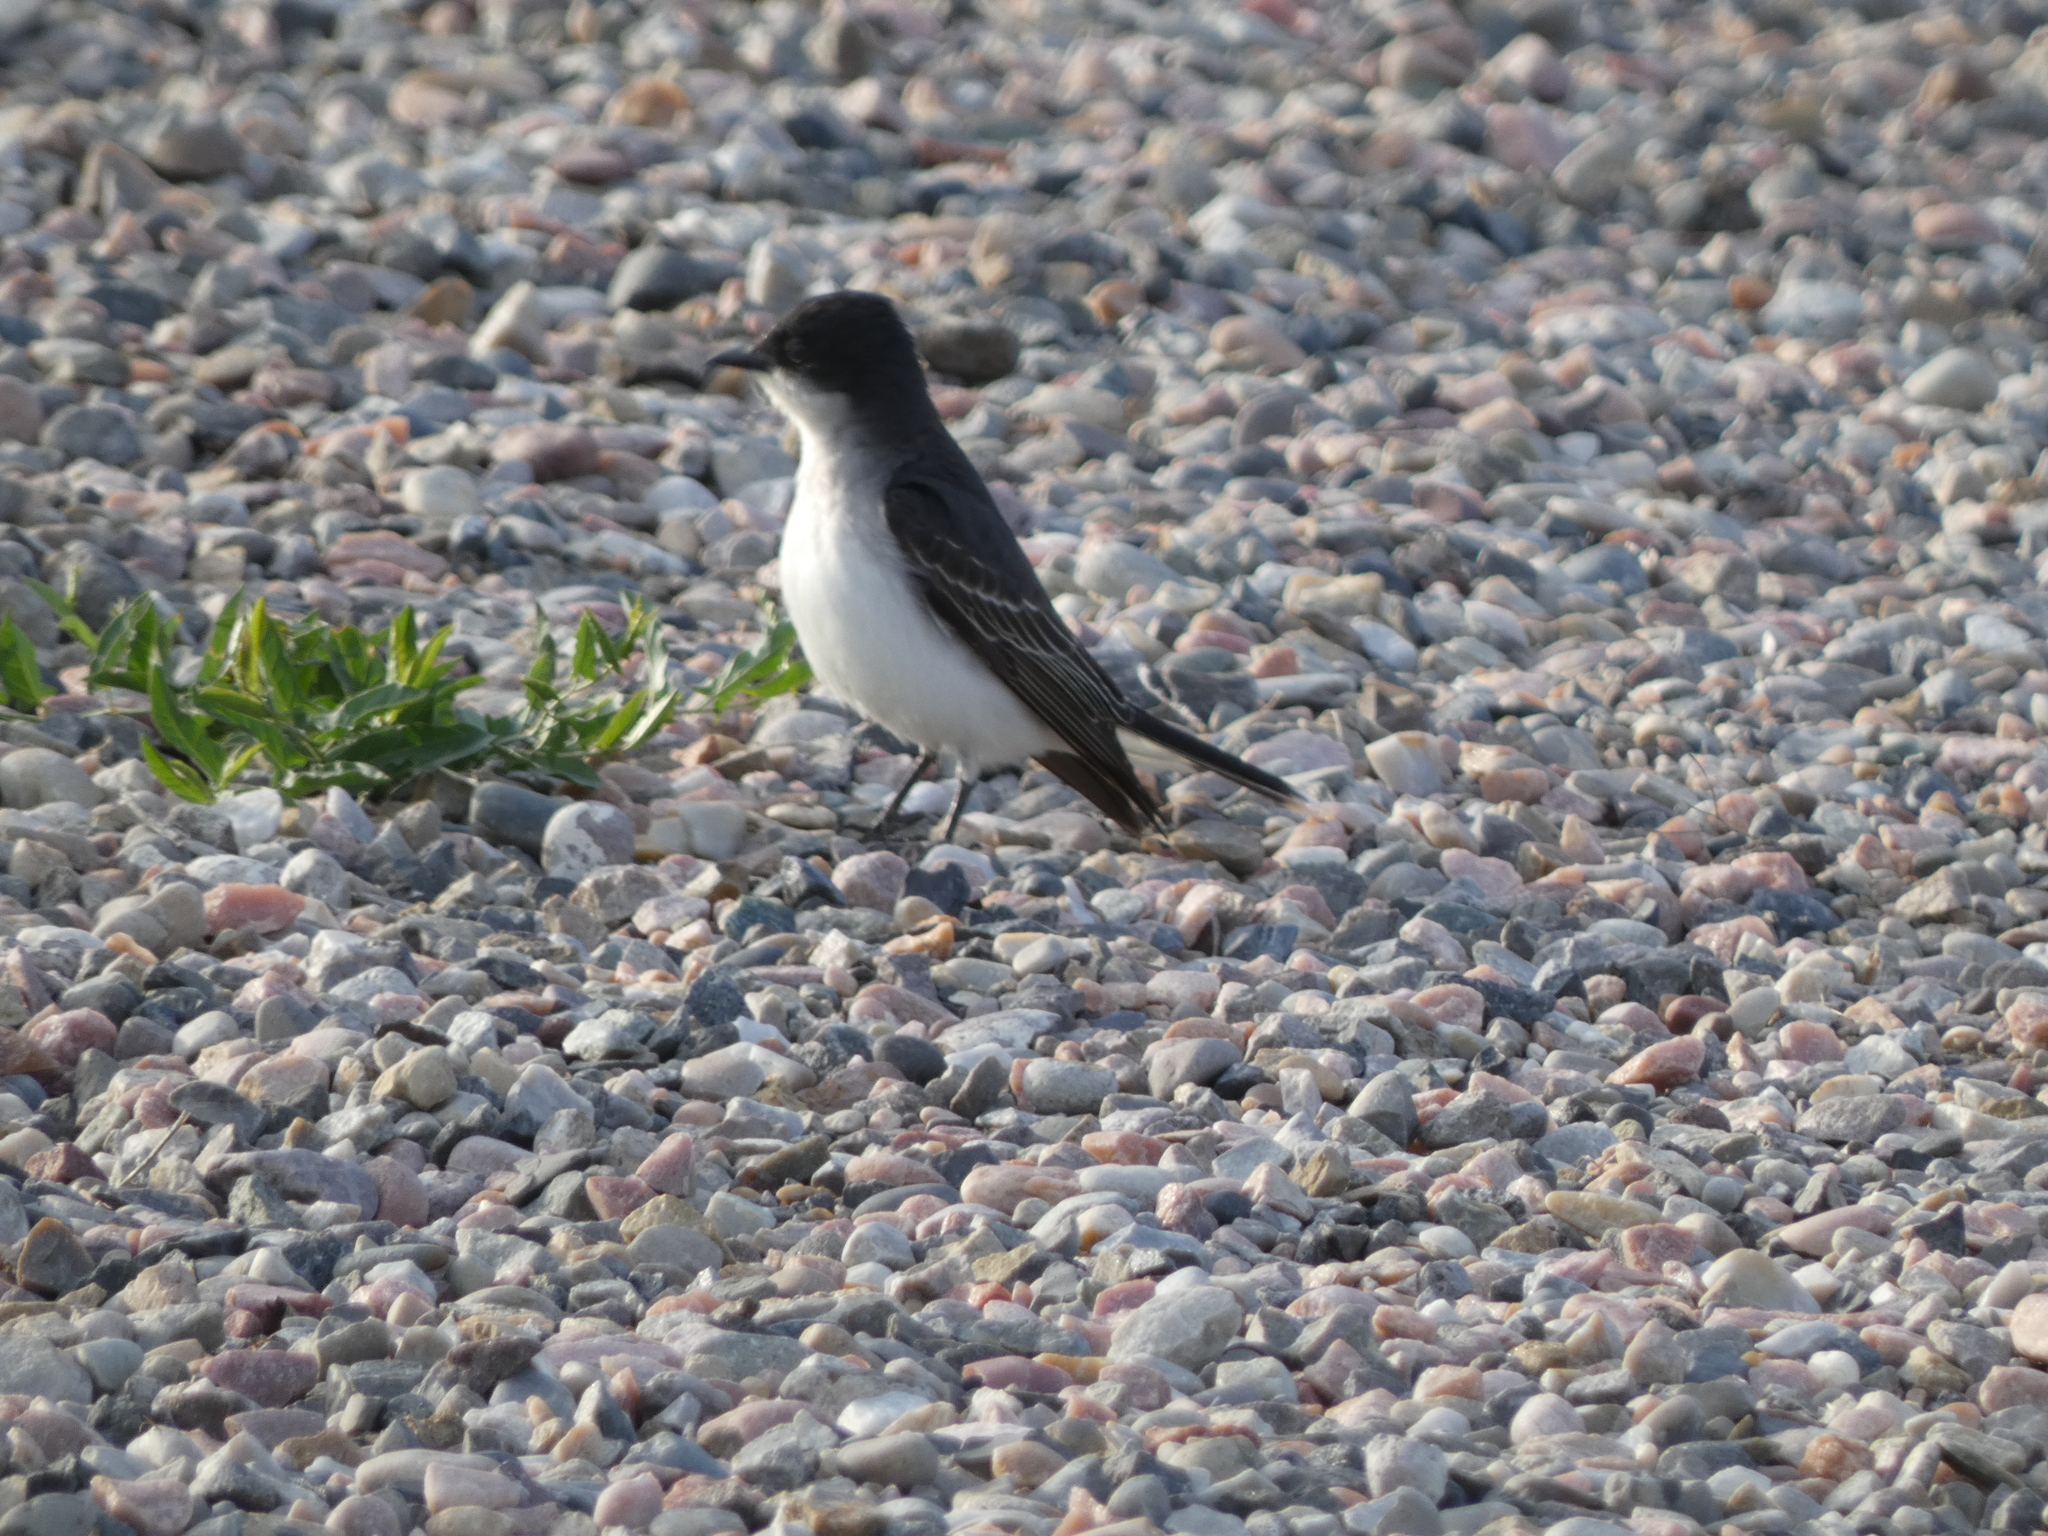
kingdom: Animalia
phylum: Chordata
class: Aves
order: Passeriformes
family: Tyrannidae
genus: Tyrannus
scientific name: Tyrannus tyrannus
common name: Eastern kingbird
